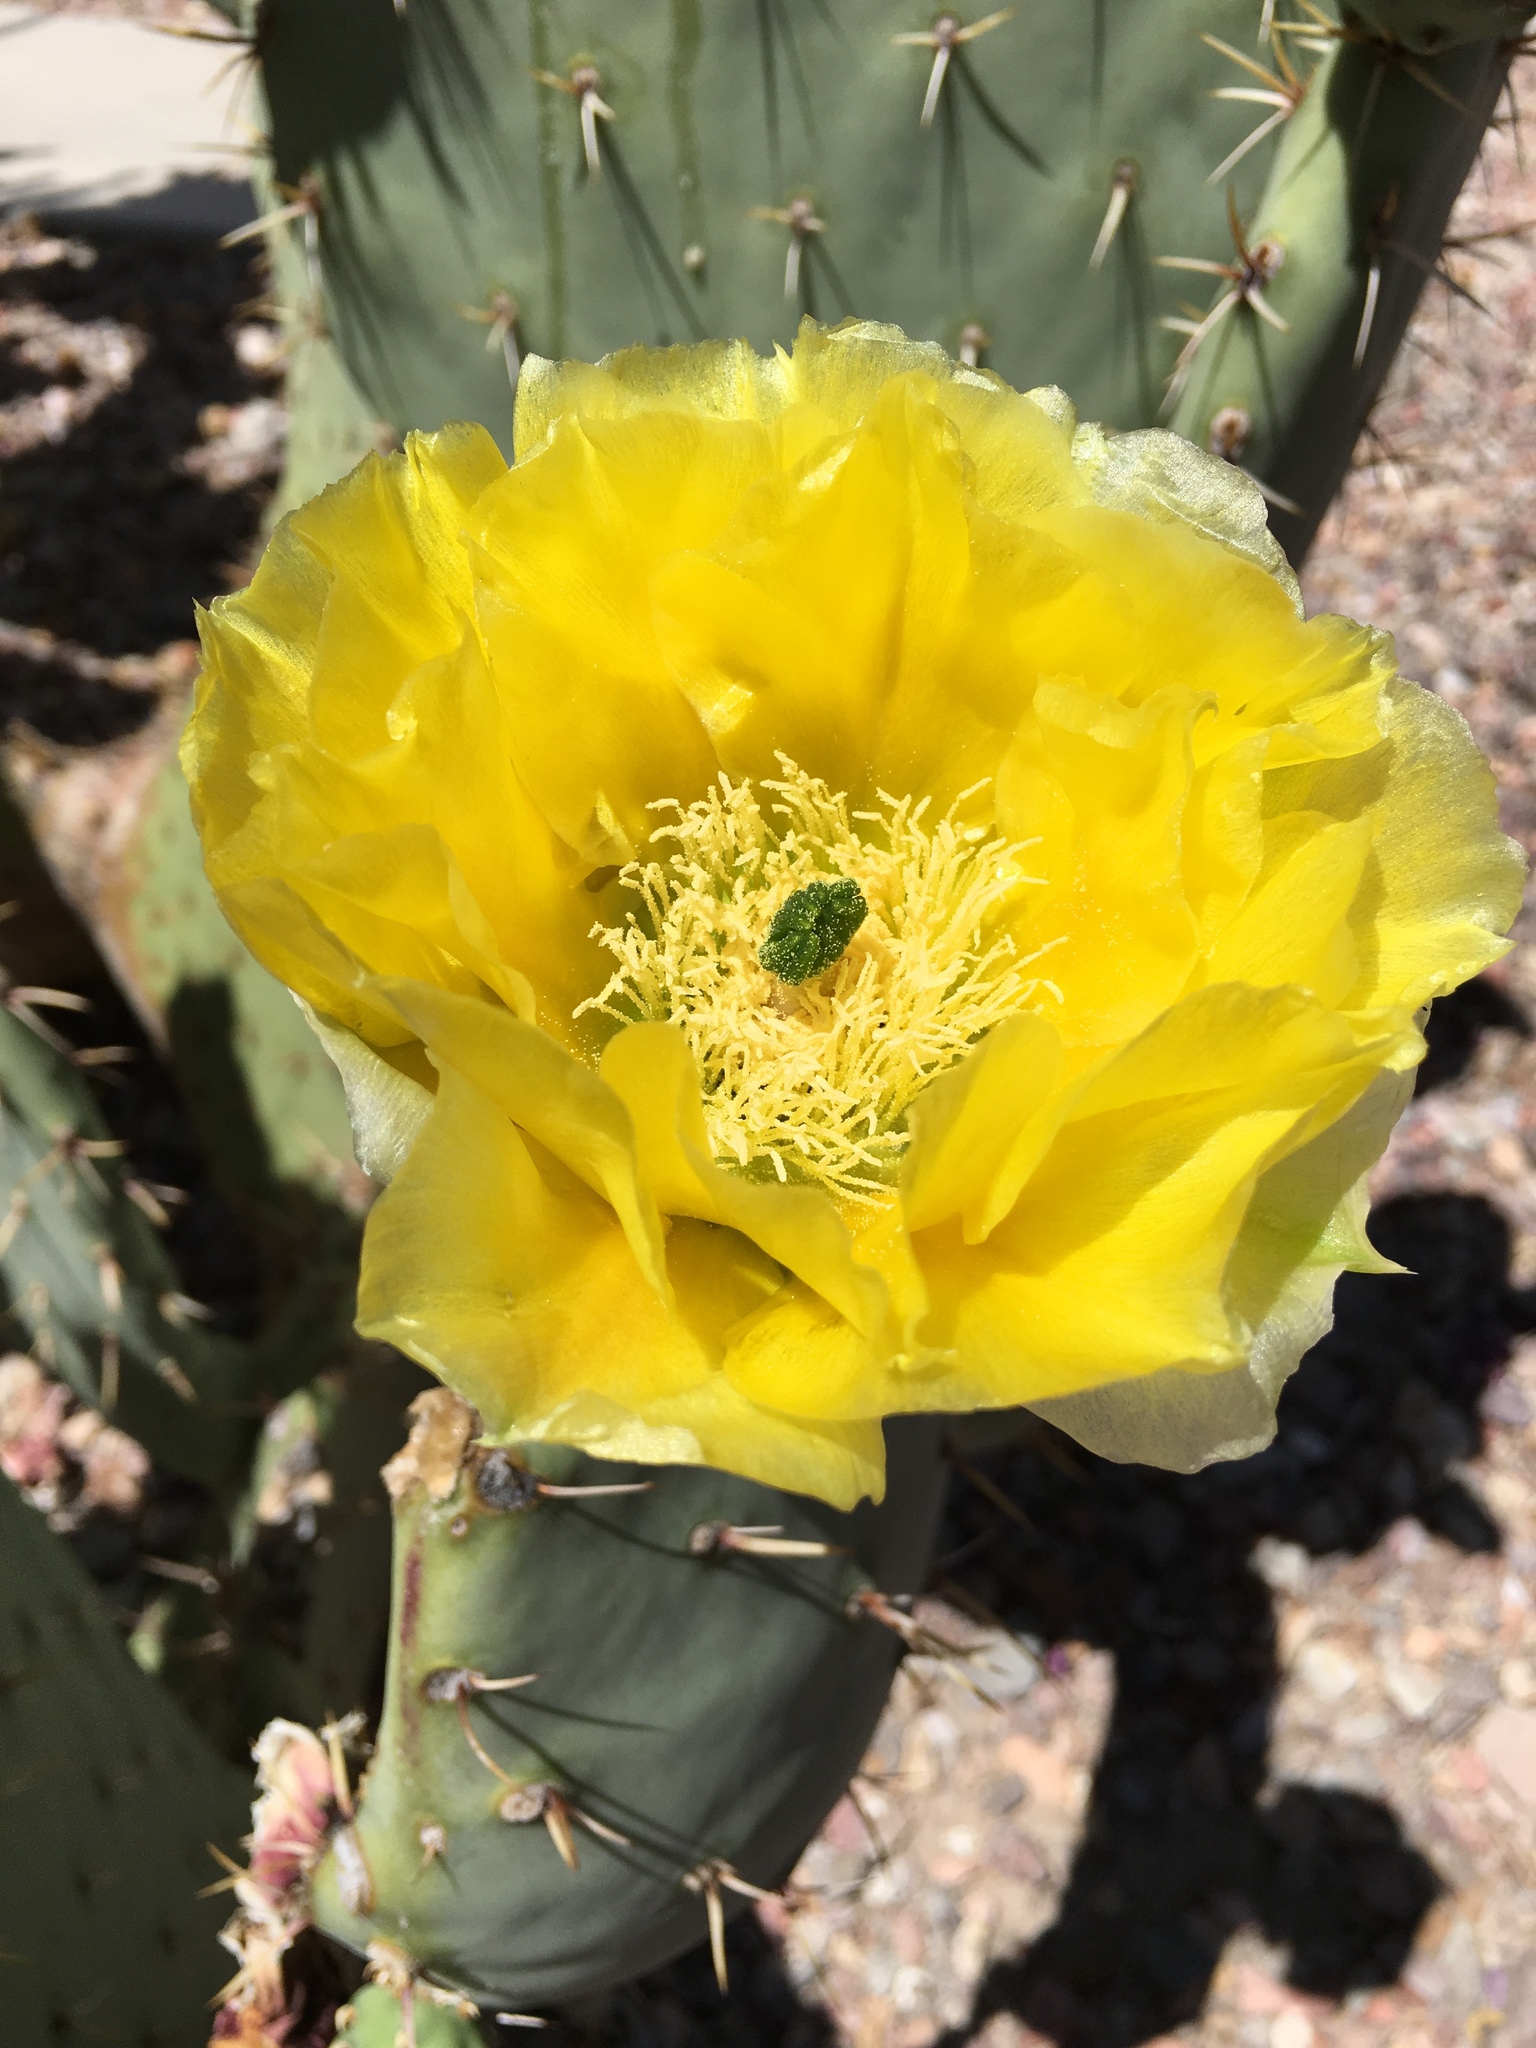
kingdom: Plantae
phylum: Tracheophyta
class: Magnoliopsida
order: Caryophyllales
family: Cactaceae
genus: Opuntia
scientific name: Opuntia phaeacantha
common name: New mexico prickly-pear
